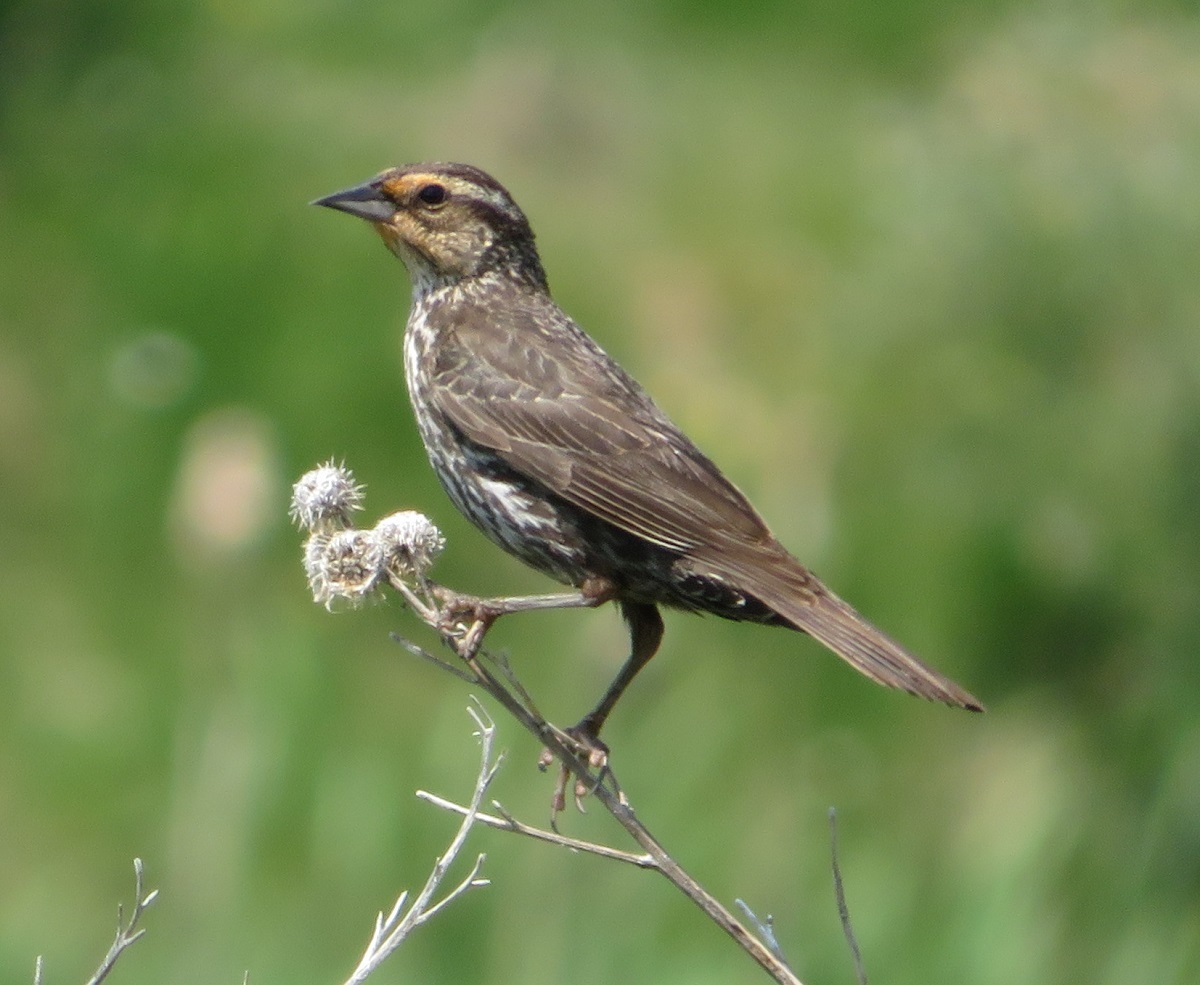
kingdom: Animalia
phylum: Chordata
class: Aves
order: Passeriformes
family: Icteridae
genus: Agelaius
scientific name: Agelaius phoeniceus
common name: Red-winged blackbird
